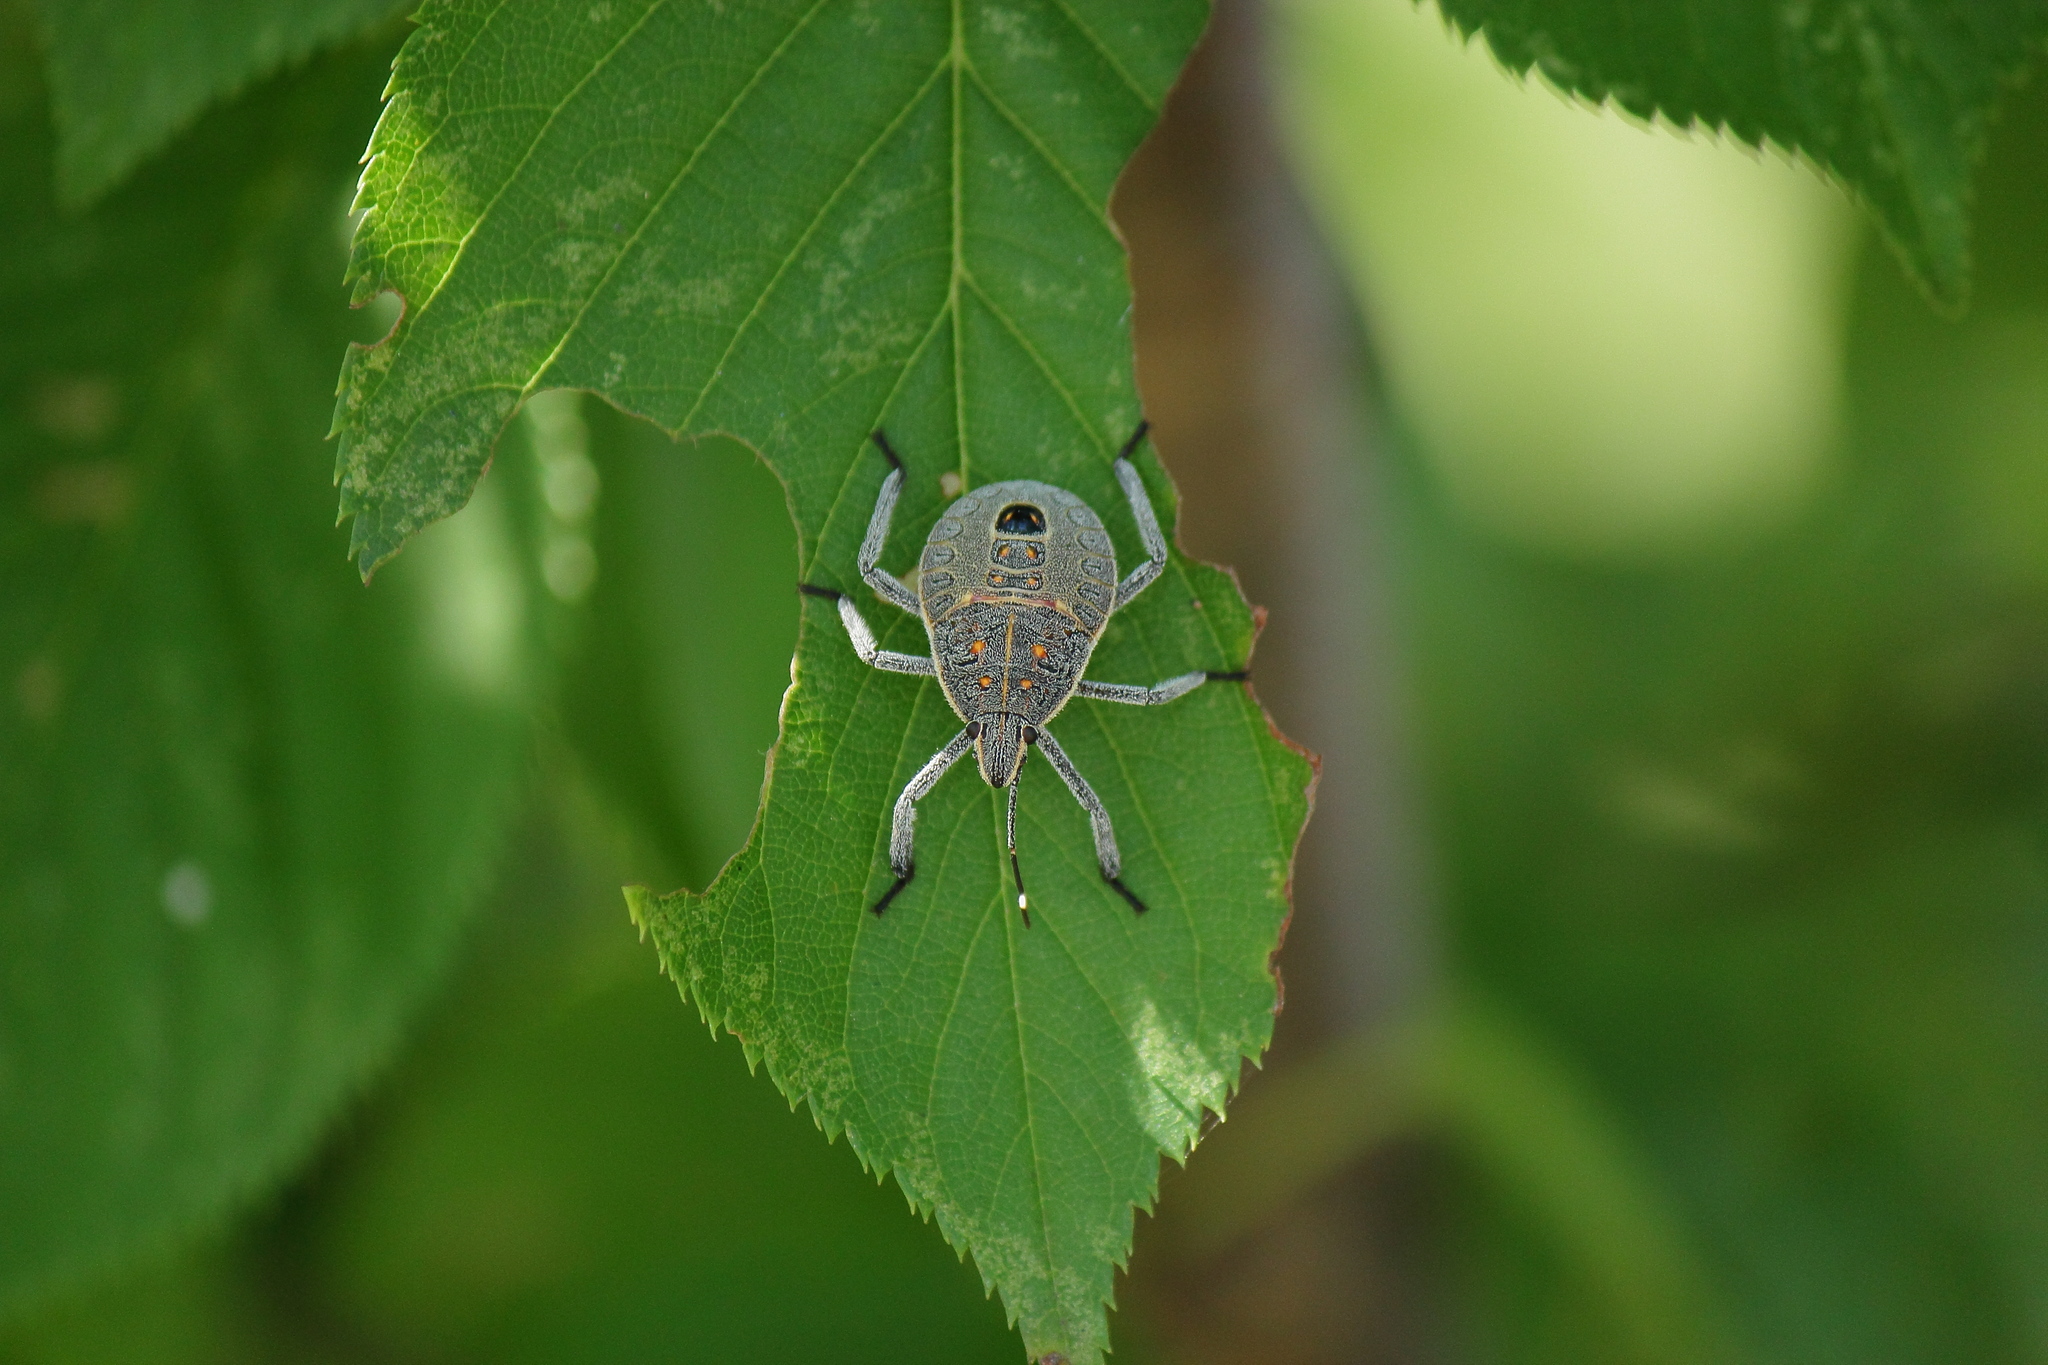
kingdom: Animalia
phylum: Arthropoda
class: Insecta
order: Hemiptera
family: Pentatomidae
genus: Erthesina
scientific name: Erthesina fullo
